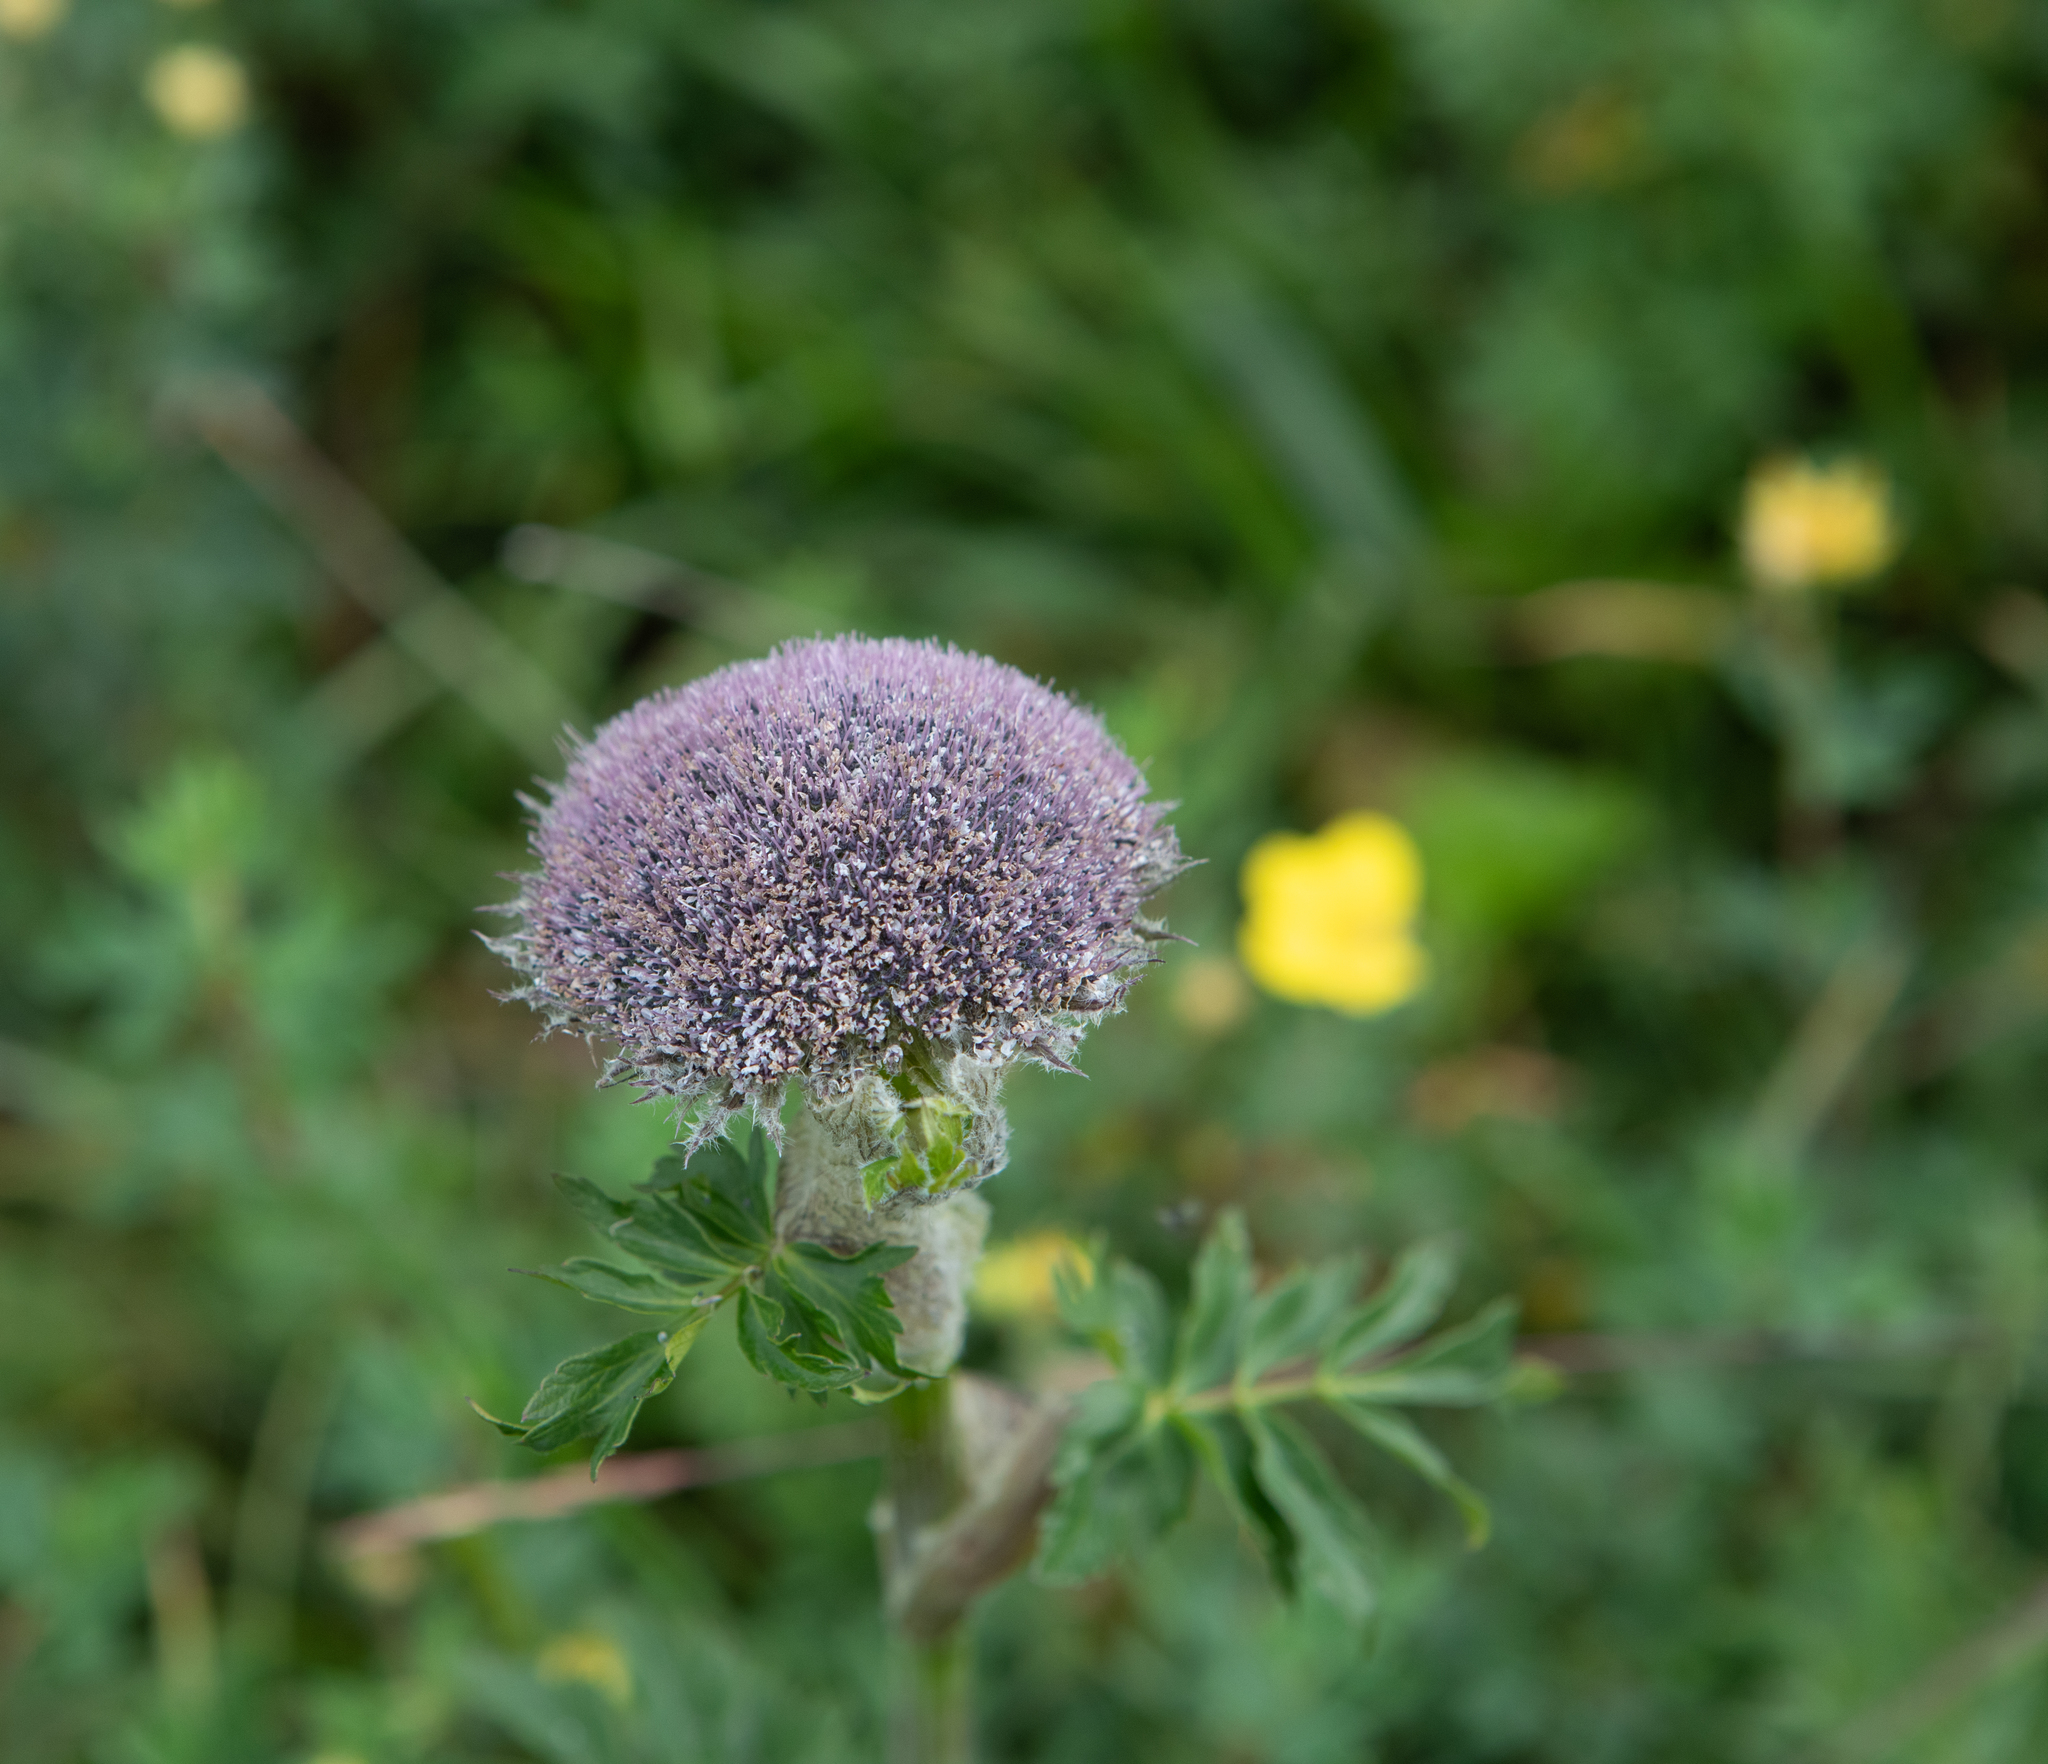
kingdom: Plantae
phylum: Tracheophyta
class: Magnoliopsida
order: Apiales
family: Apiaceae
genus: Sajanella
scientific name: Sajanella monstrosa
